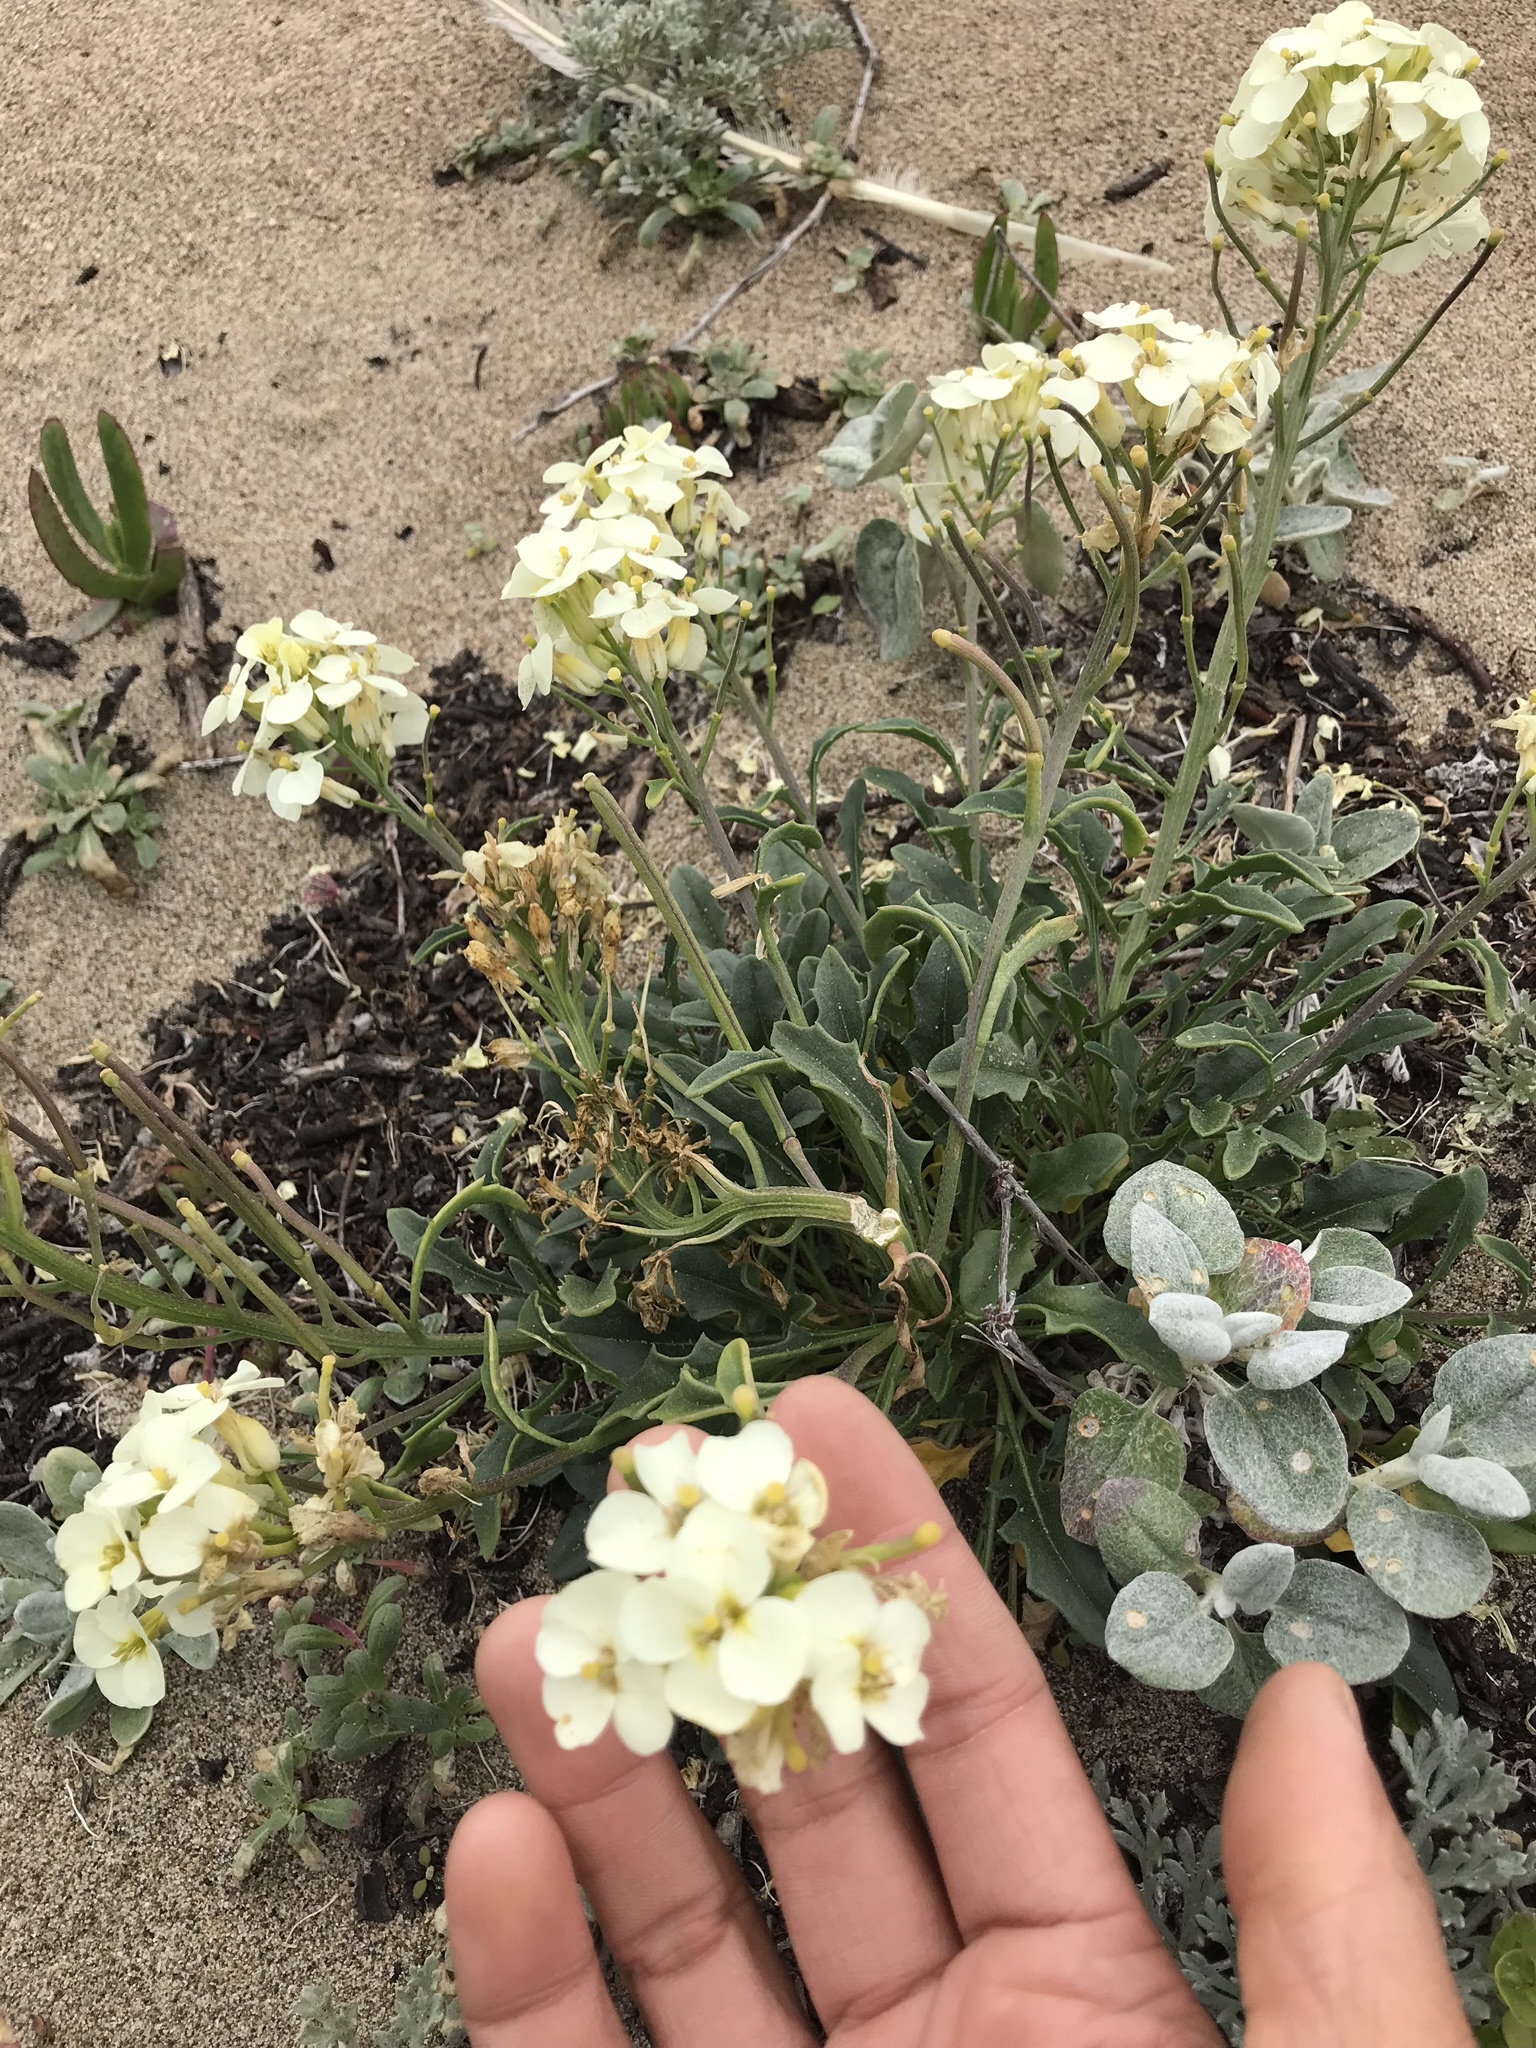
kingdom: Plantae
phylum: Tracheophyta
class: Magnoliopsida
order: Brassicales
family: Brassicaceae
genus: Erysimum
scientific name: Erysimum franciscanum
